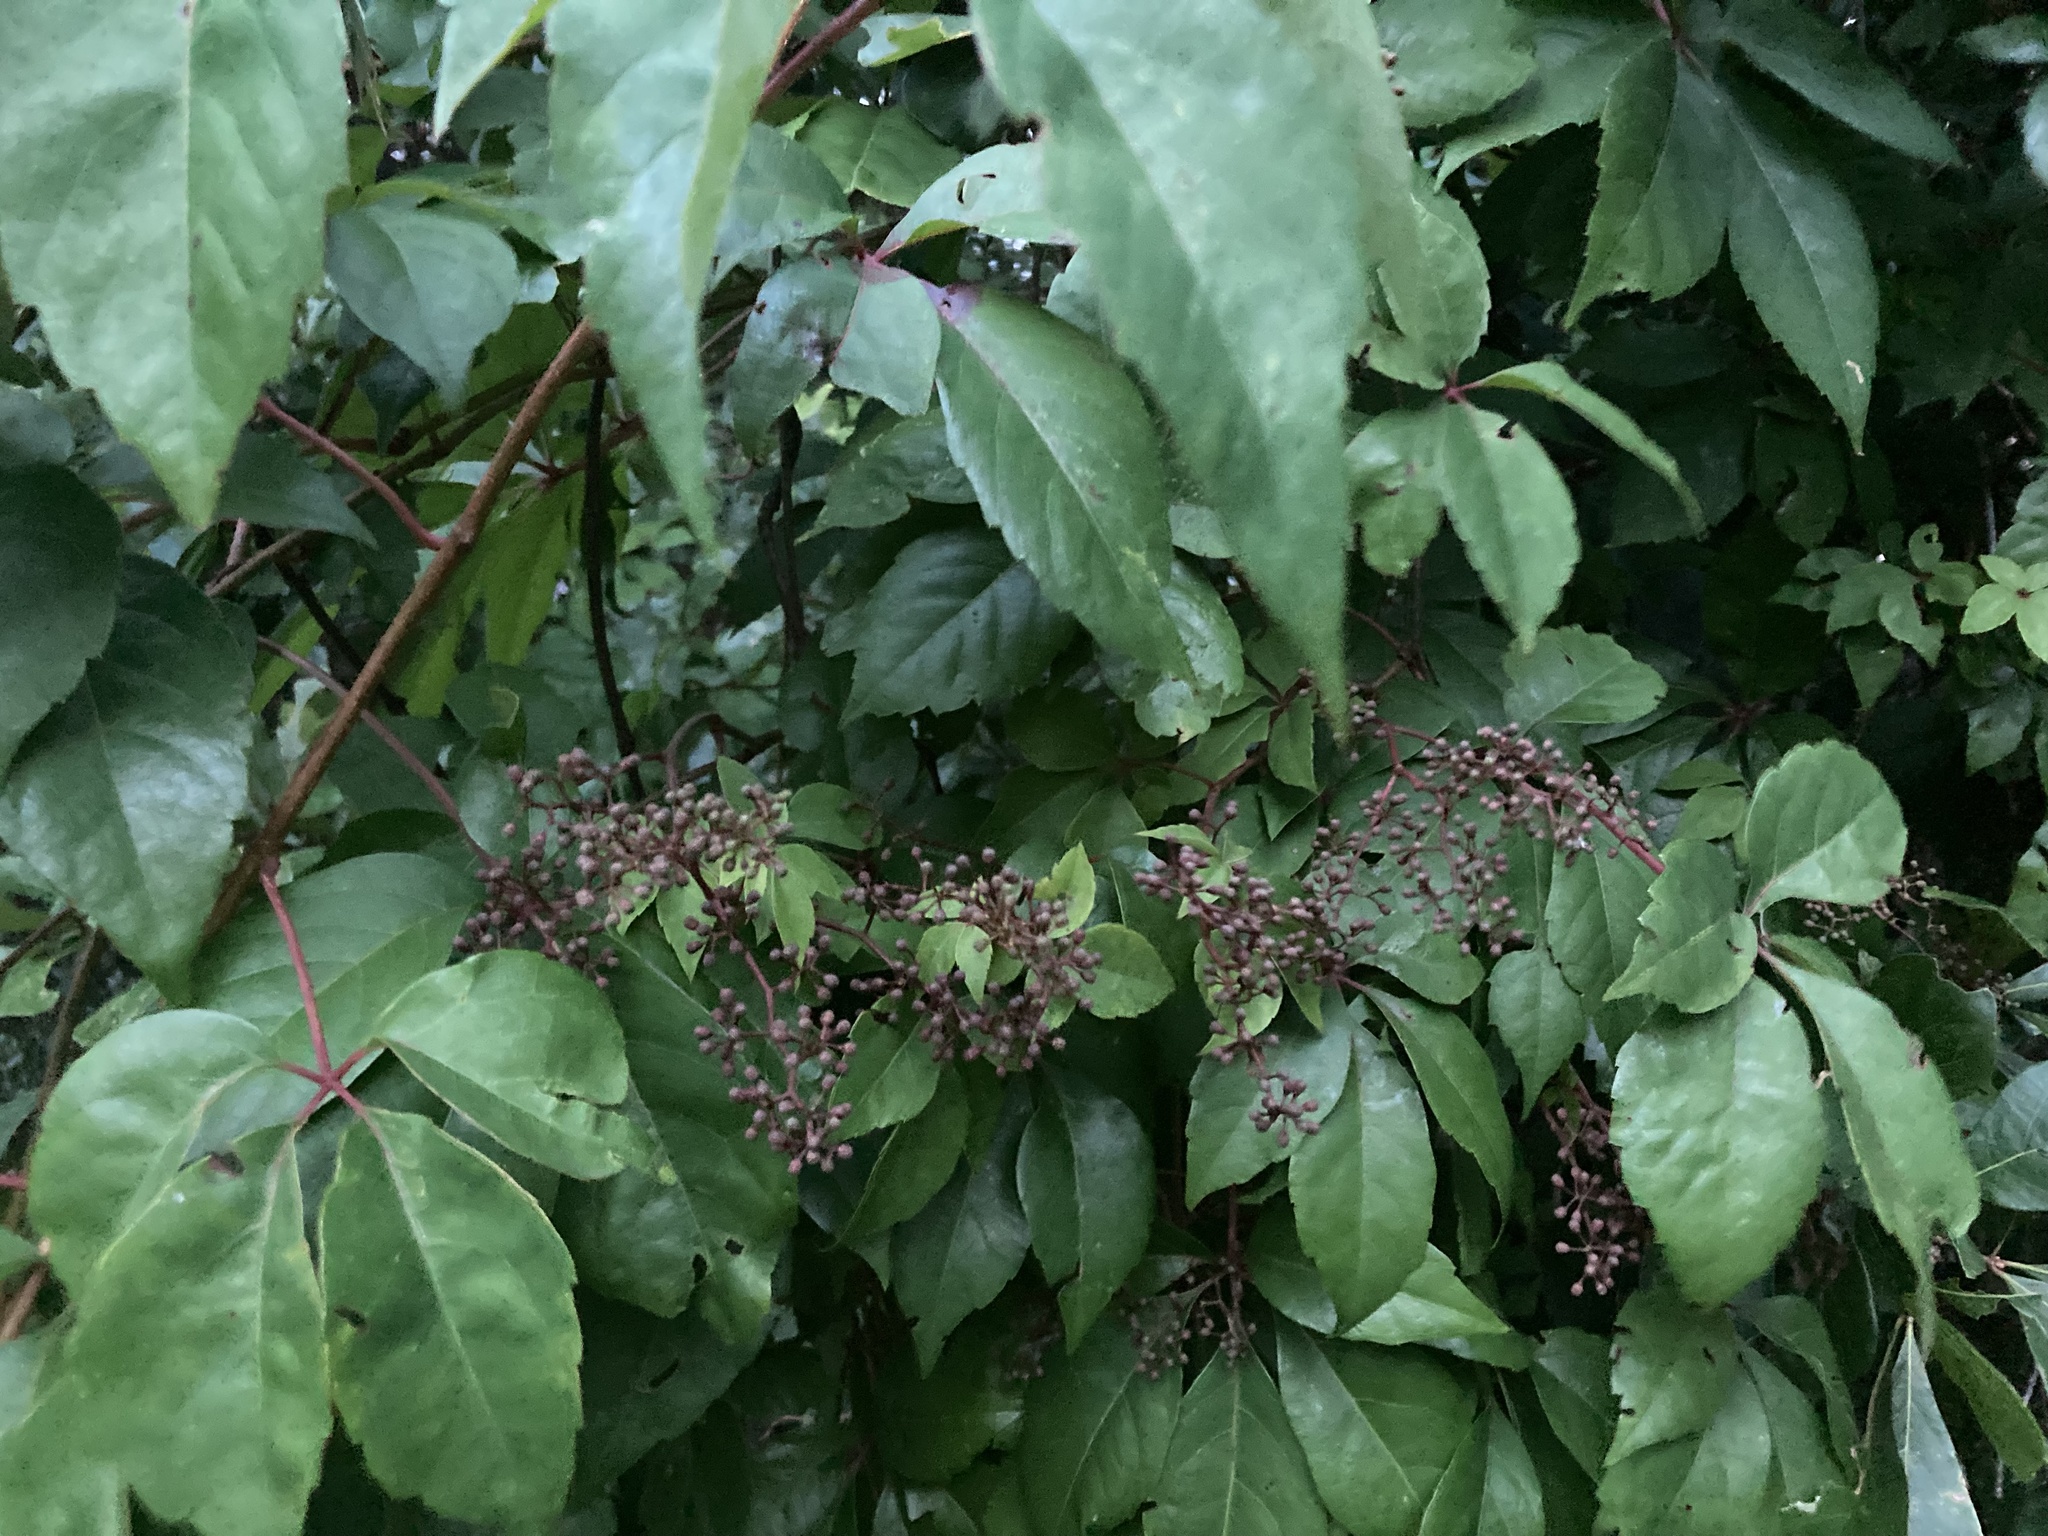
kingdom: Plantae
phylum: Tracheophyta
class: Magnoliopsida
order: Vitales
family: Vitaceae
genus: Parthenocissus
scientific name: Parthenocissus quinquefolia
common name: Virginia-creeper
